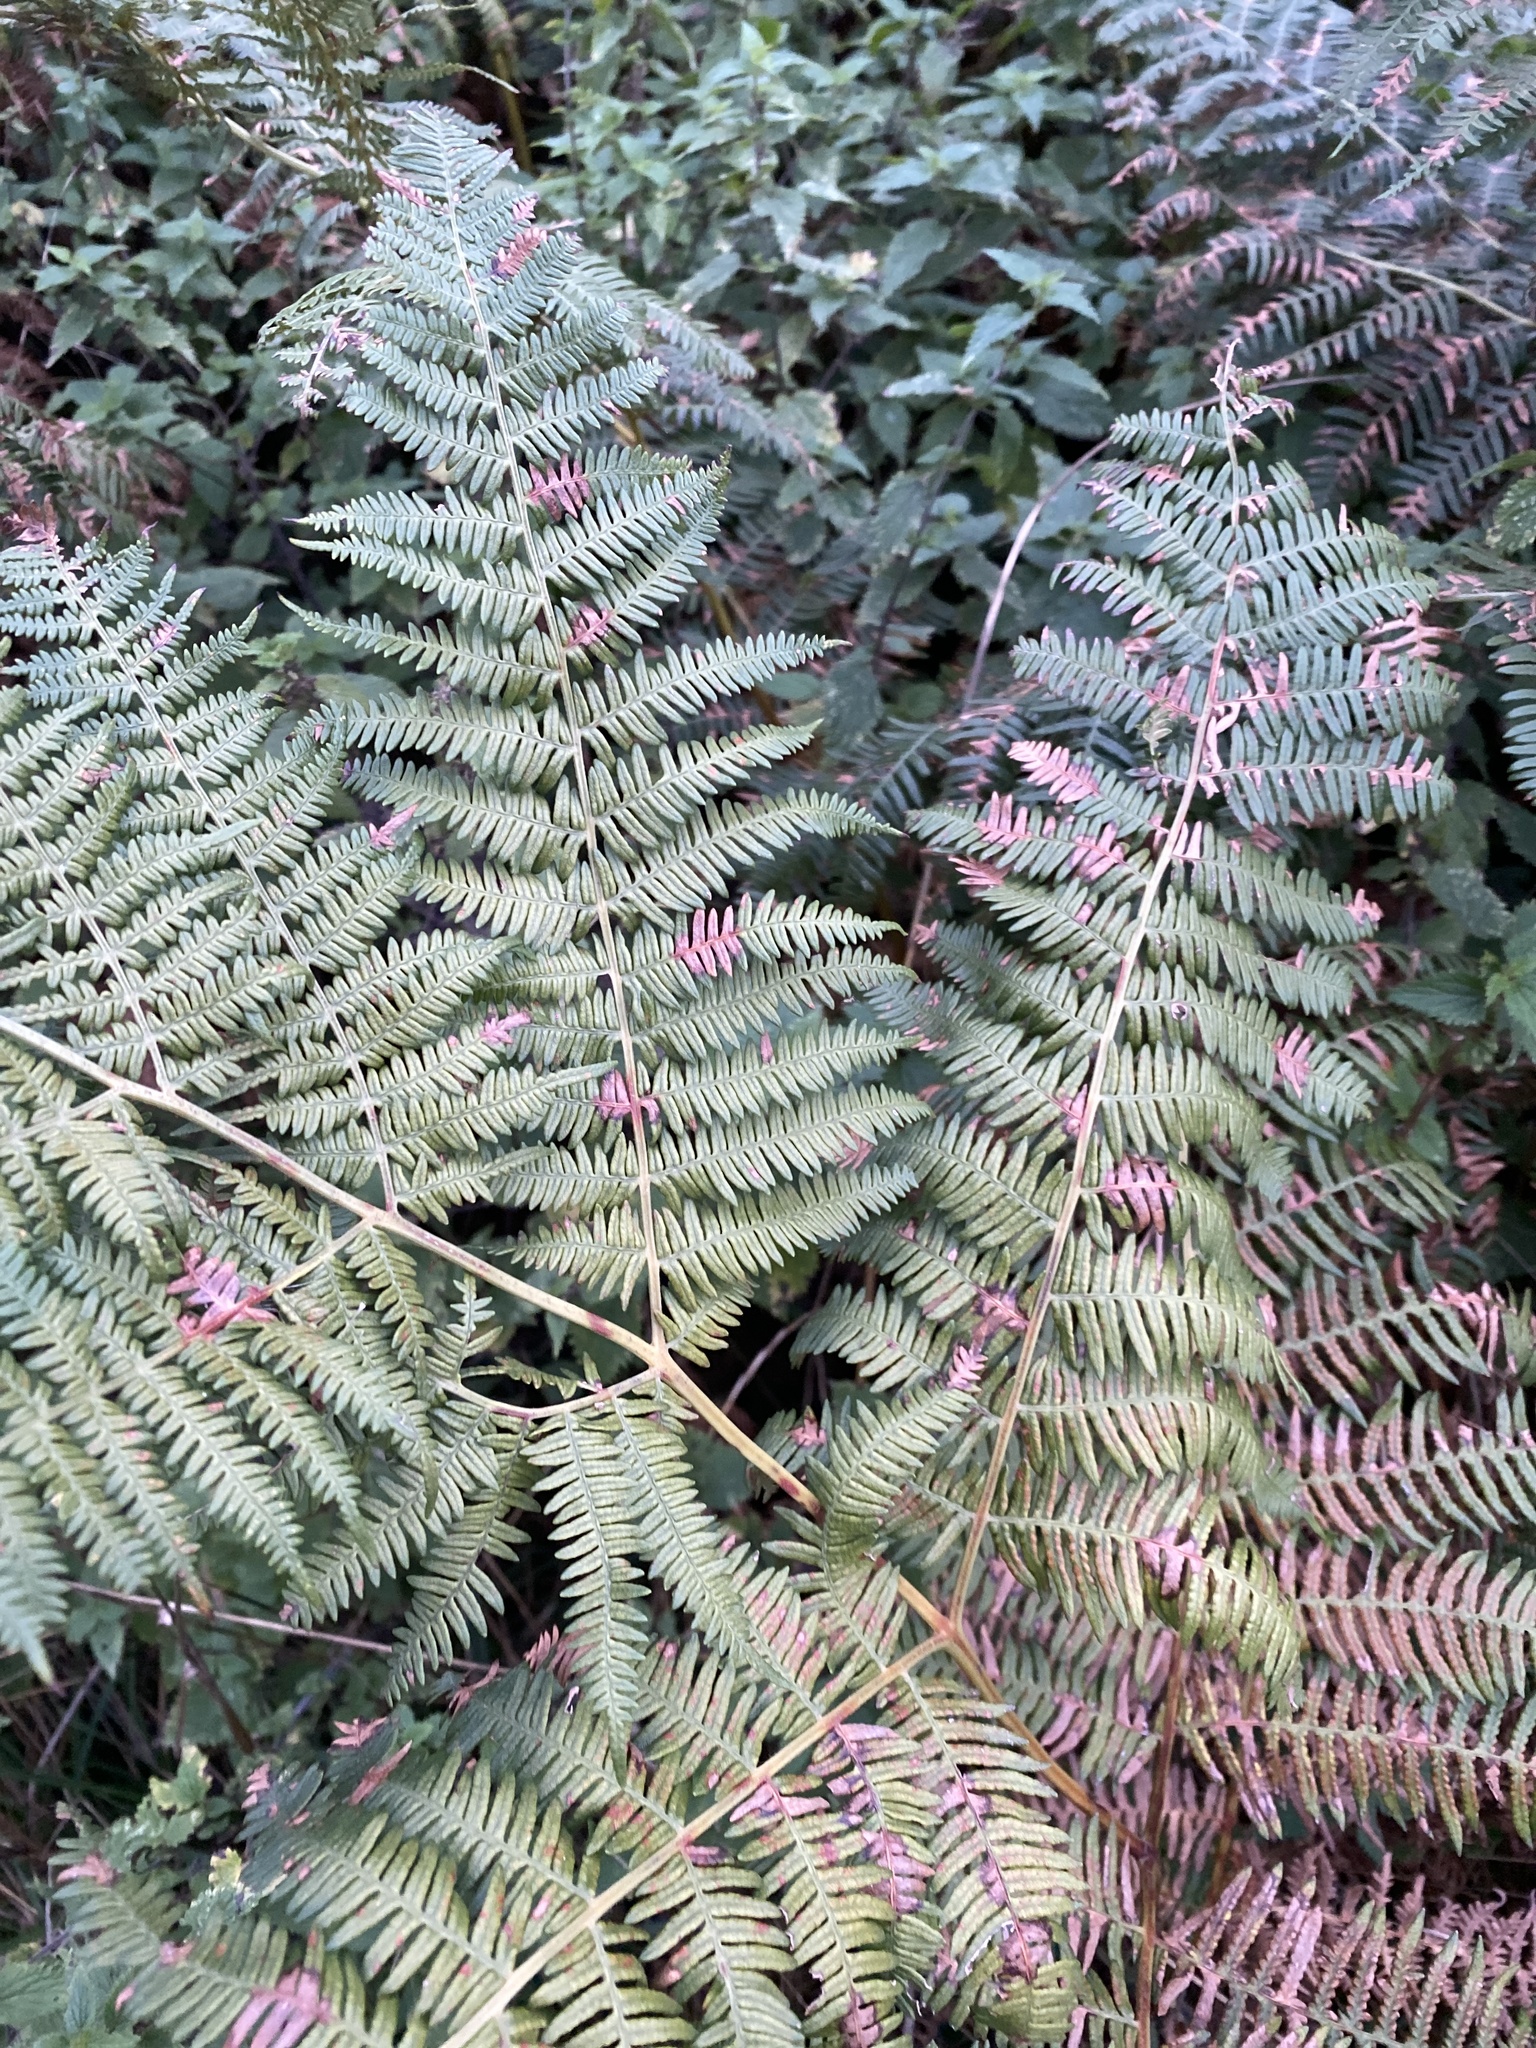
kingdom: Plantae
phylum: Tracheophyta
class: Polypodiopsida
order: Polypodiales
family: Dennstaedtiaceae
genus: Pteridium
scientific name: Pteridium aquilinum
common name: Bracken
